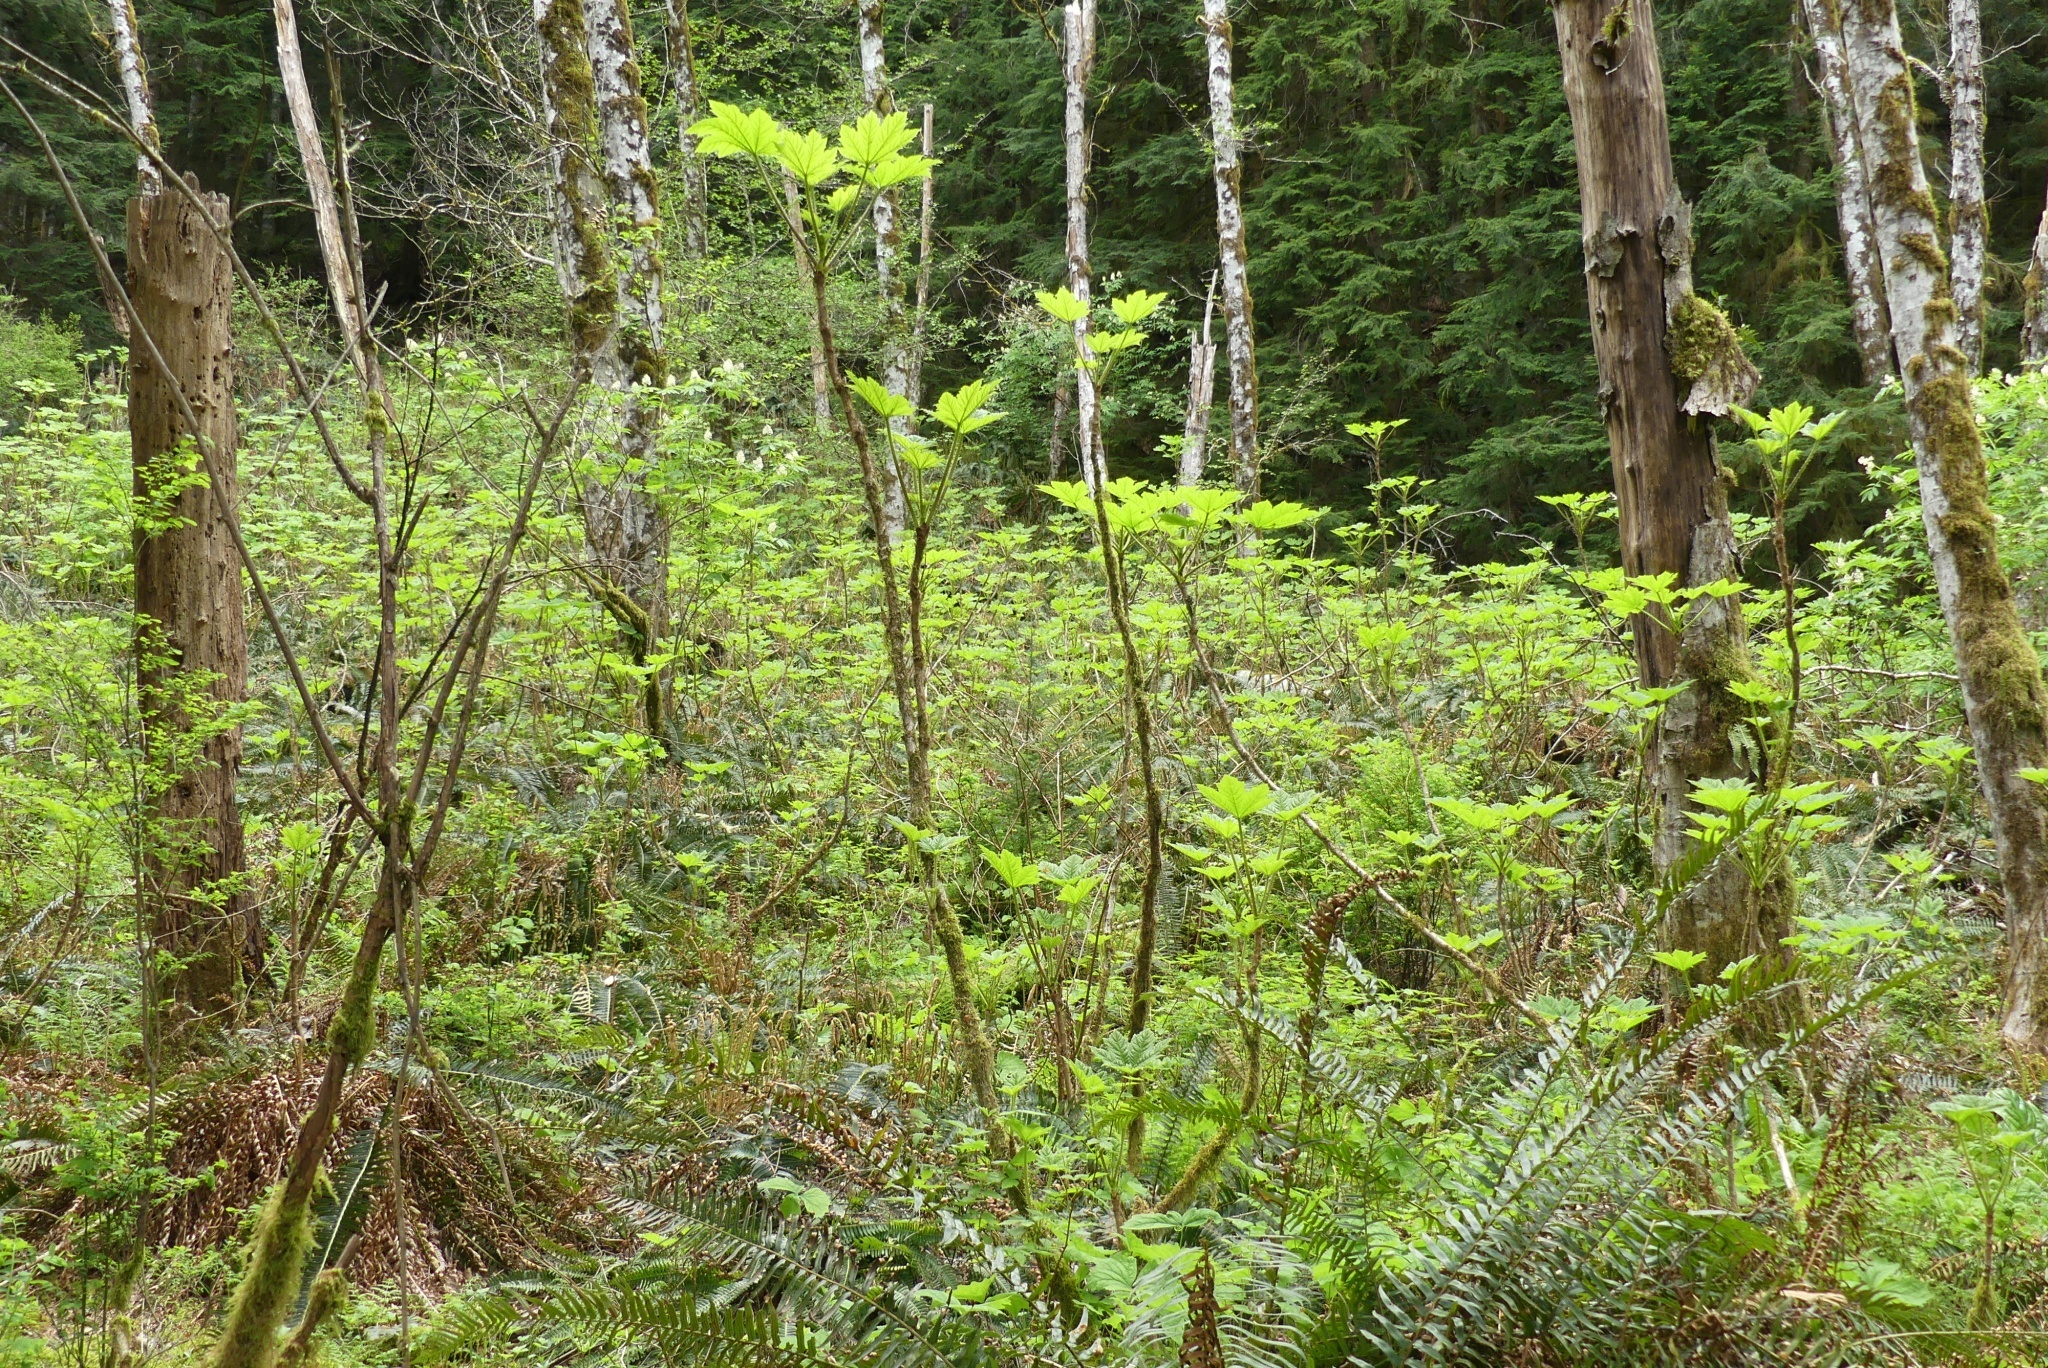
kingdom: Plantae
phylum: Tracheophyta
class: Magnoliopsida
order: Apiales
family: Araliaceae
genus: Oplopanax
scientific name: Oplopanax horridus
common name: Devil's walking-stick
